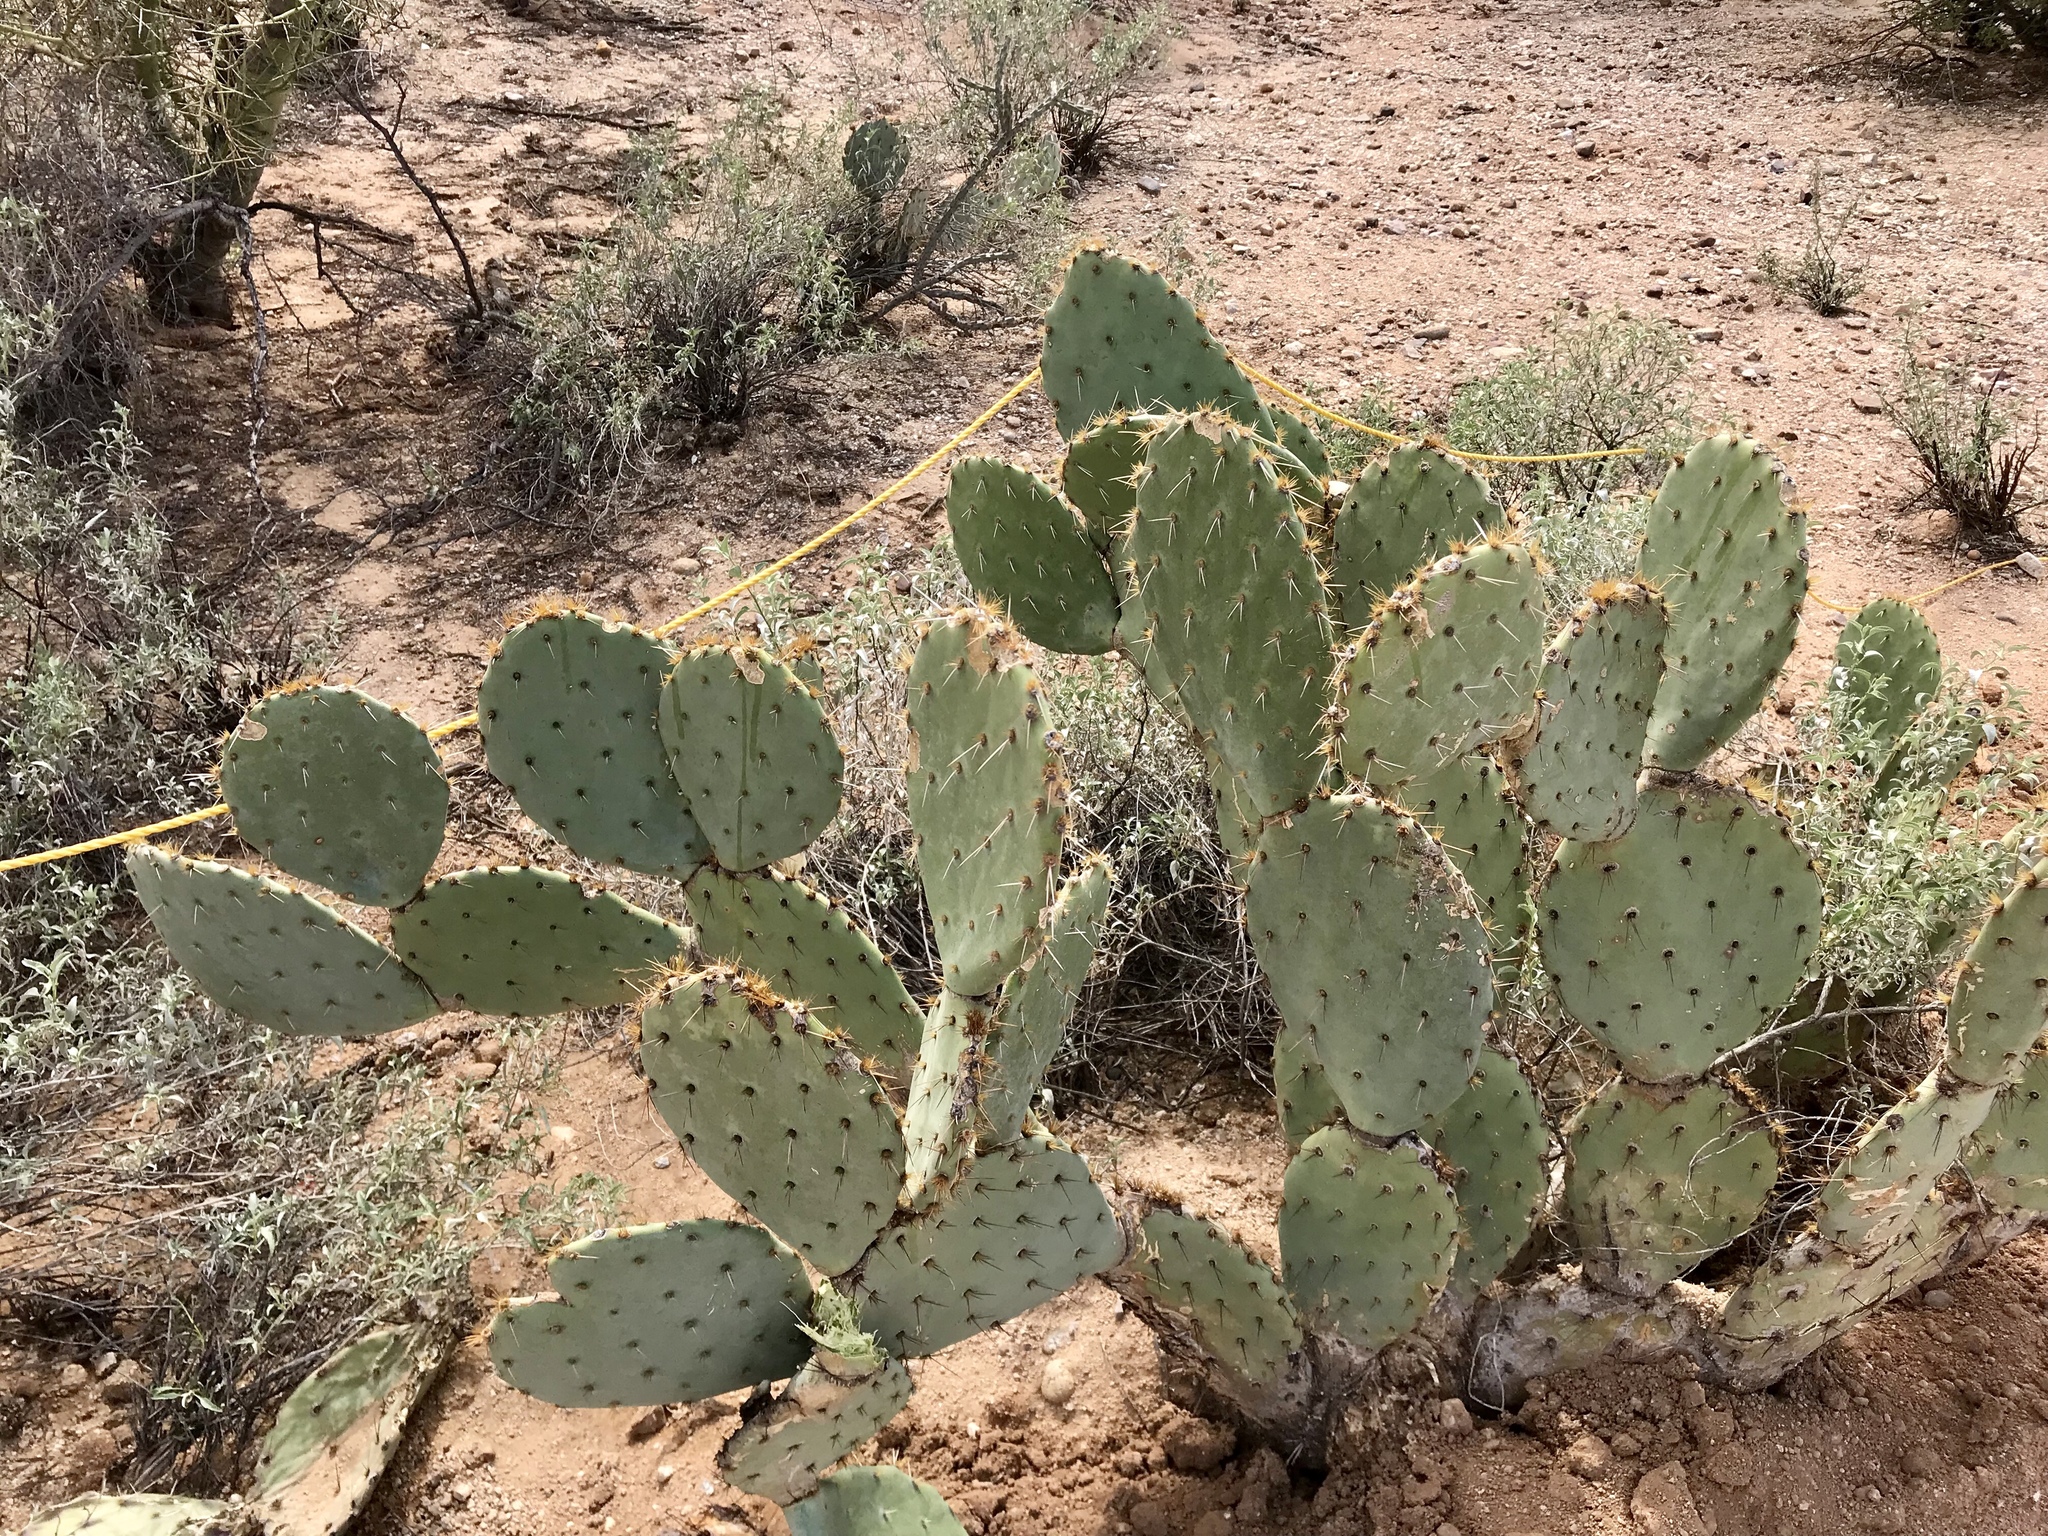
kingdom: Plantae
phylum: Tracheophyta
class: Magnoliopsida
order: Caryophyllales
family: Cactaceae
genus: Opuntia
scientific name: Opuntia engelmannii
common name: Cactus-apple
